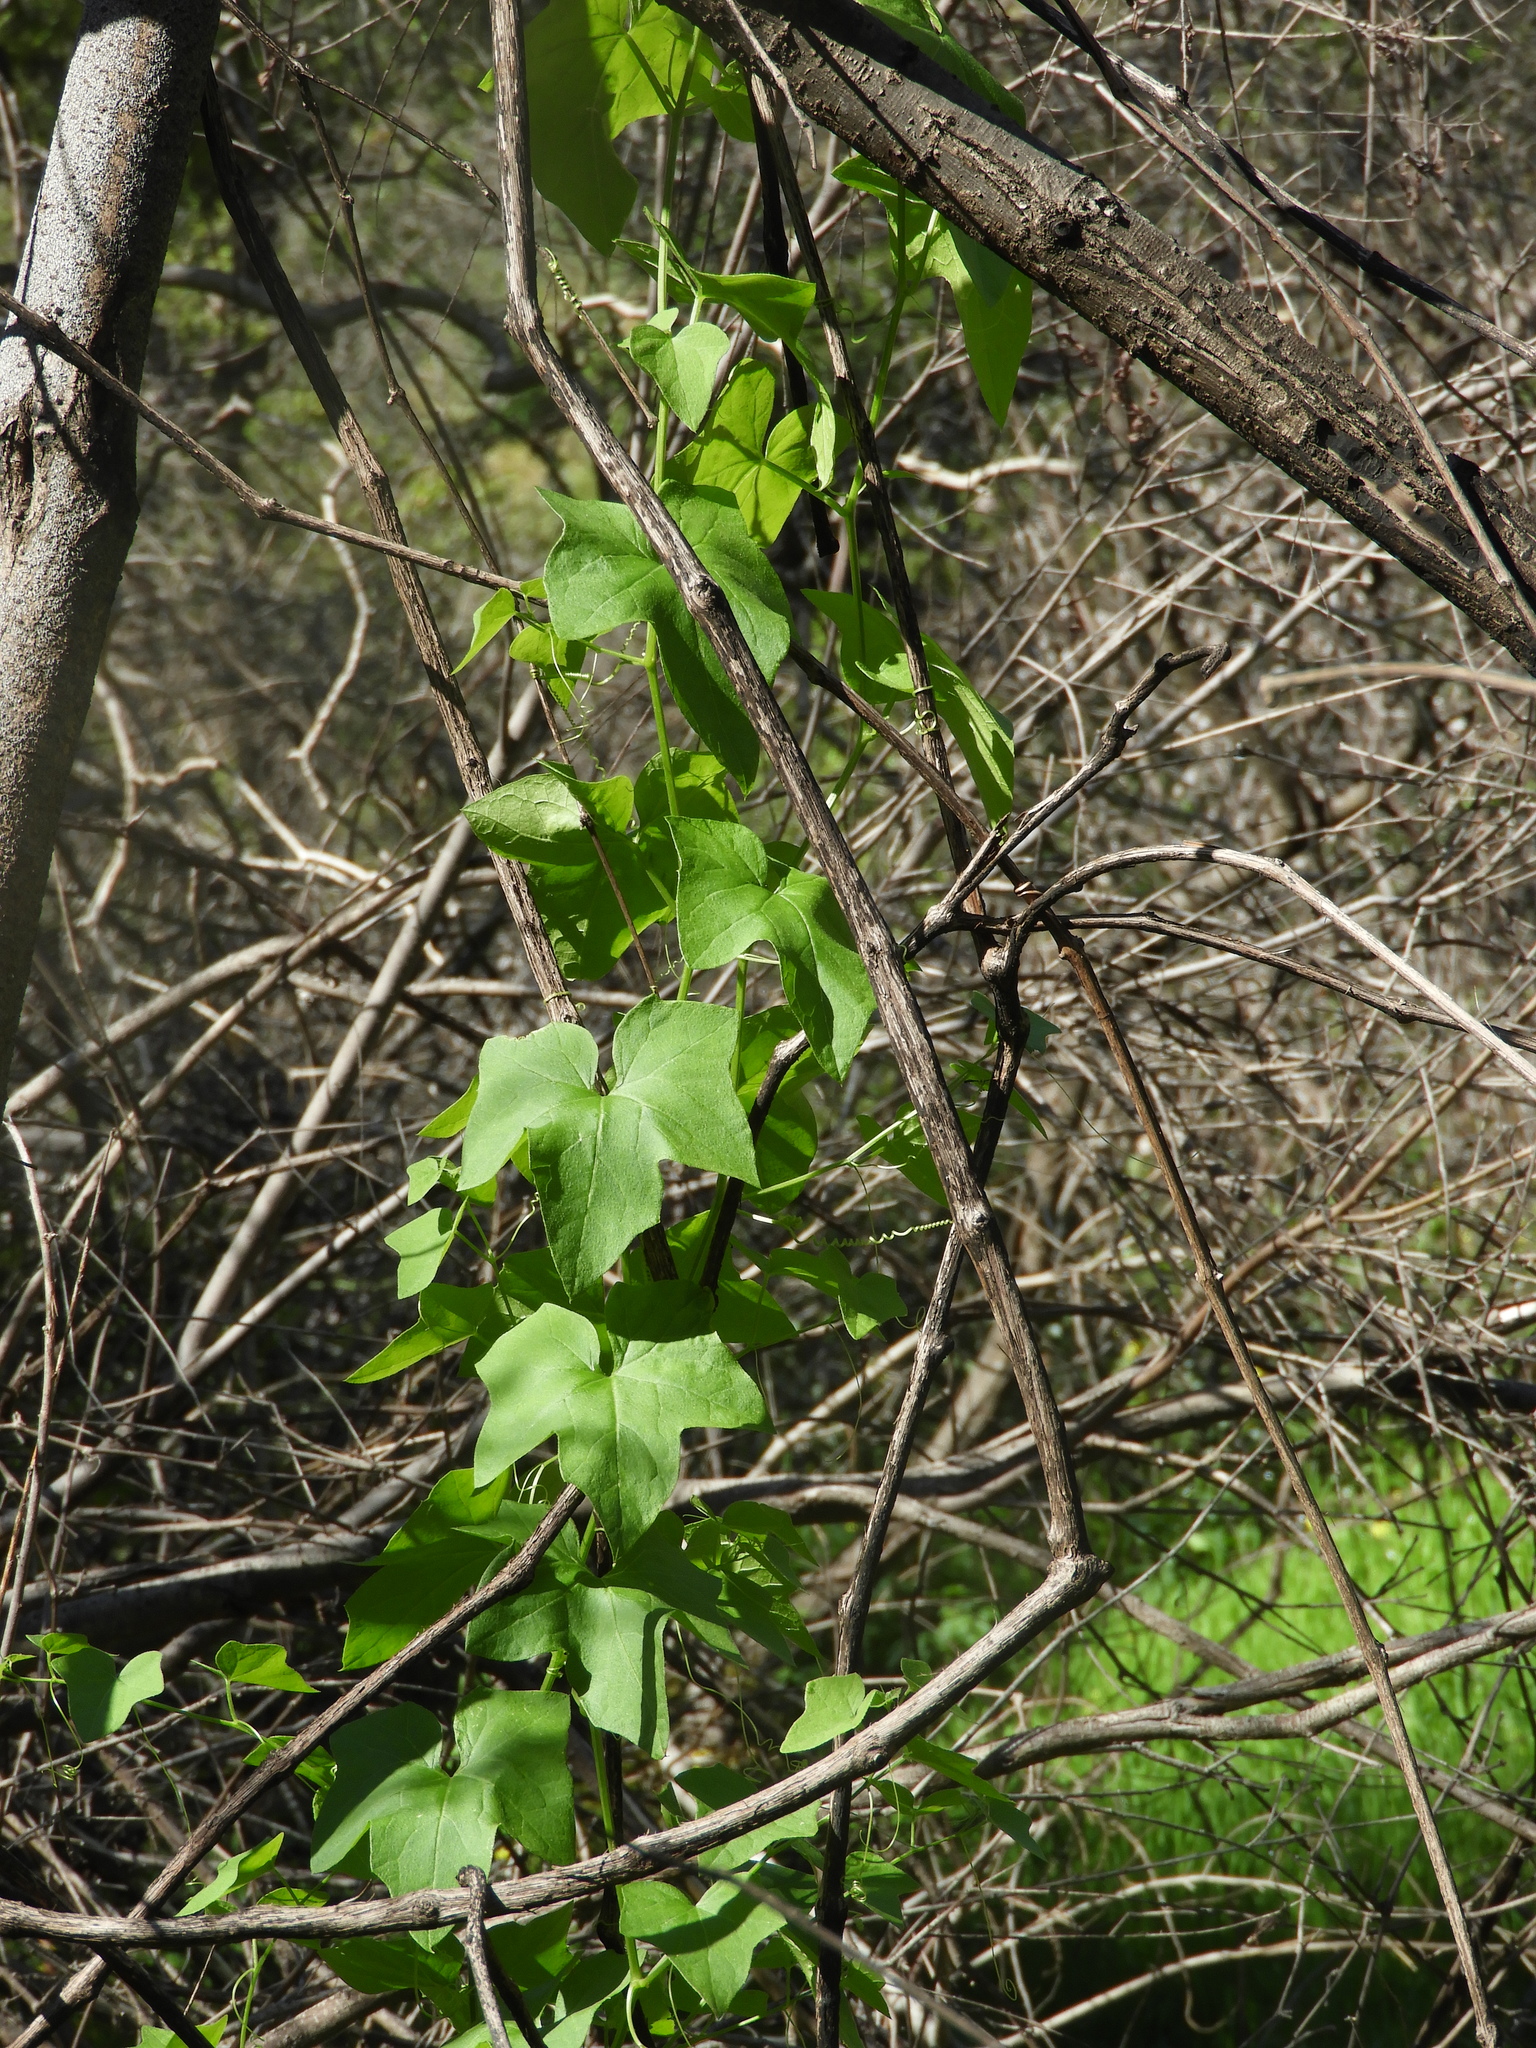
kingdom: Plantae
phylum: Tracheophyta
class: Magnoliopsida
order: Cucurbitales
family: Cucurbitaceae
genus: Marah
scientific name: Marah fabacea
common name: California manroot
